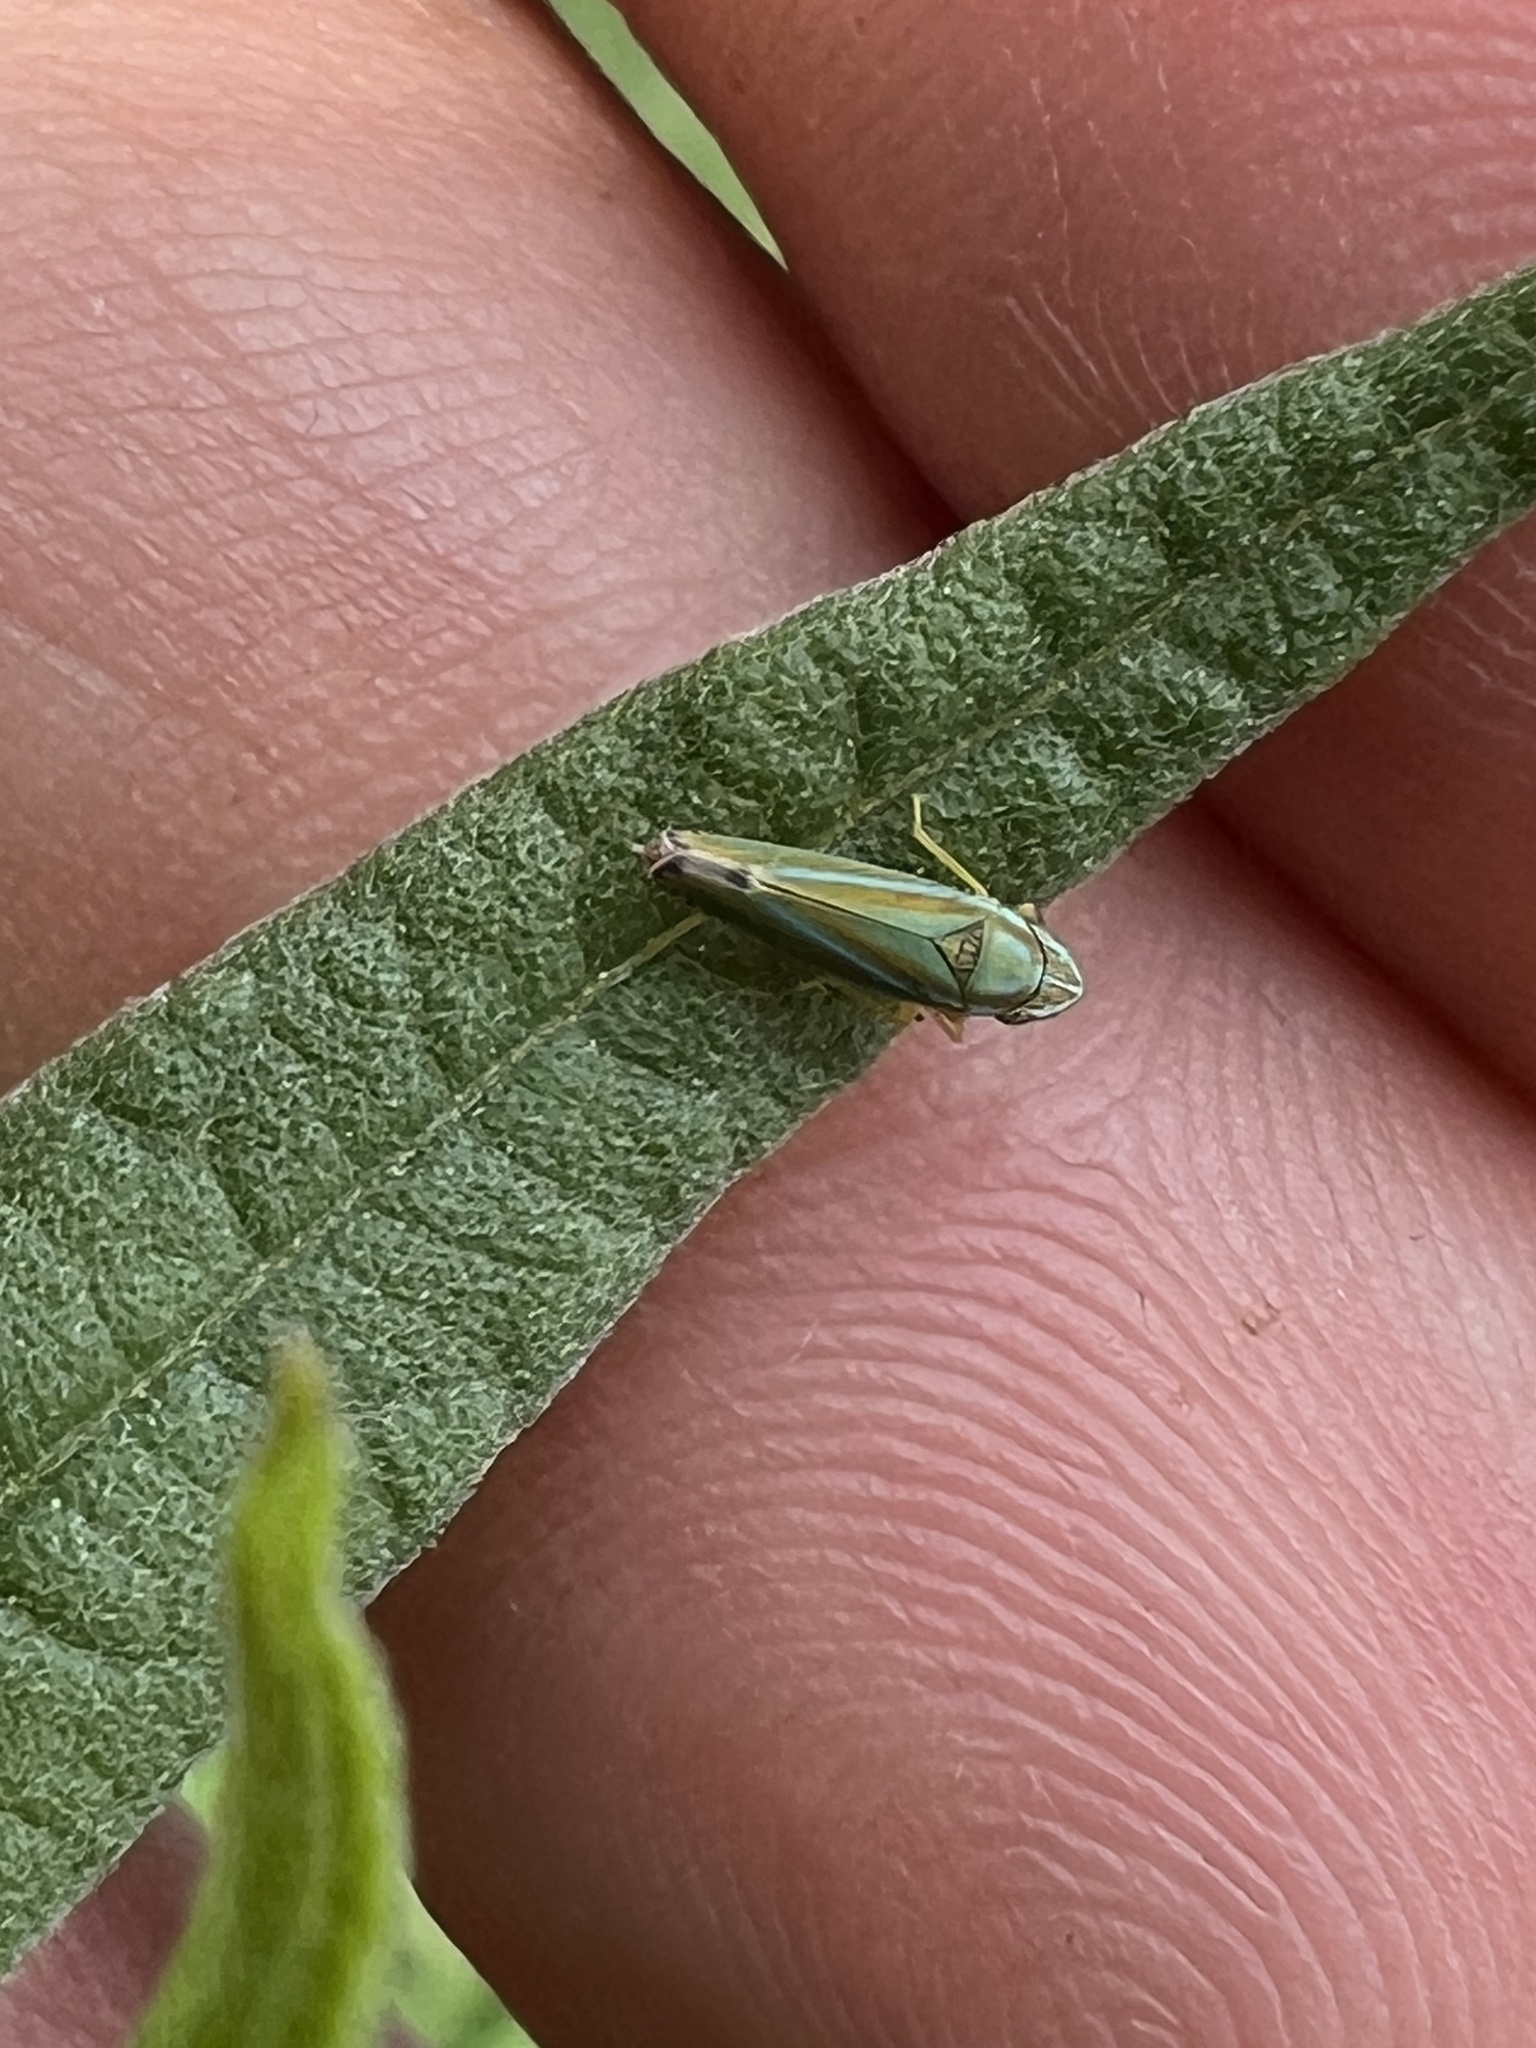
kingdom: Animalia
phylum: Arthropoda
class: Insecta
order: Hemiptera
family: Cicadellidae
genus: Graphocephala
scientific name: Graphocephala versuta
